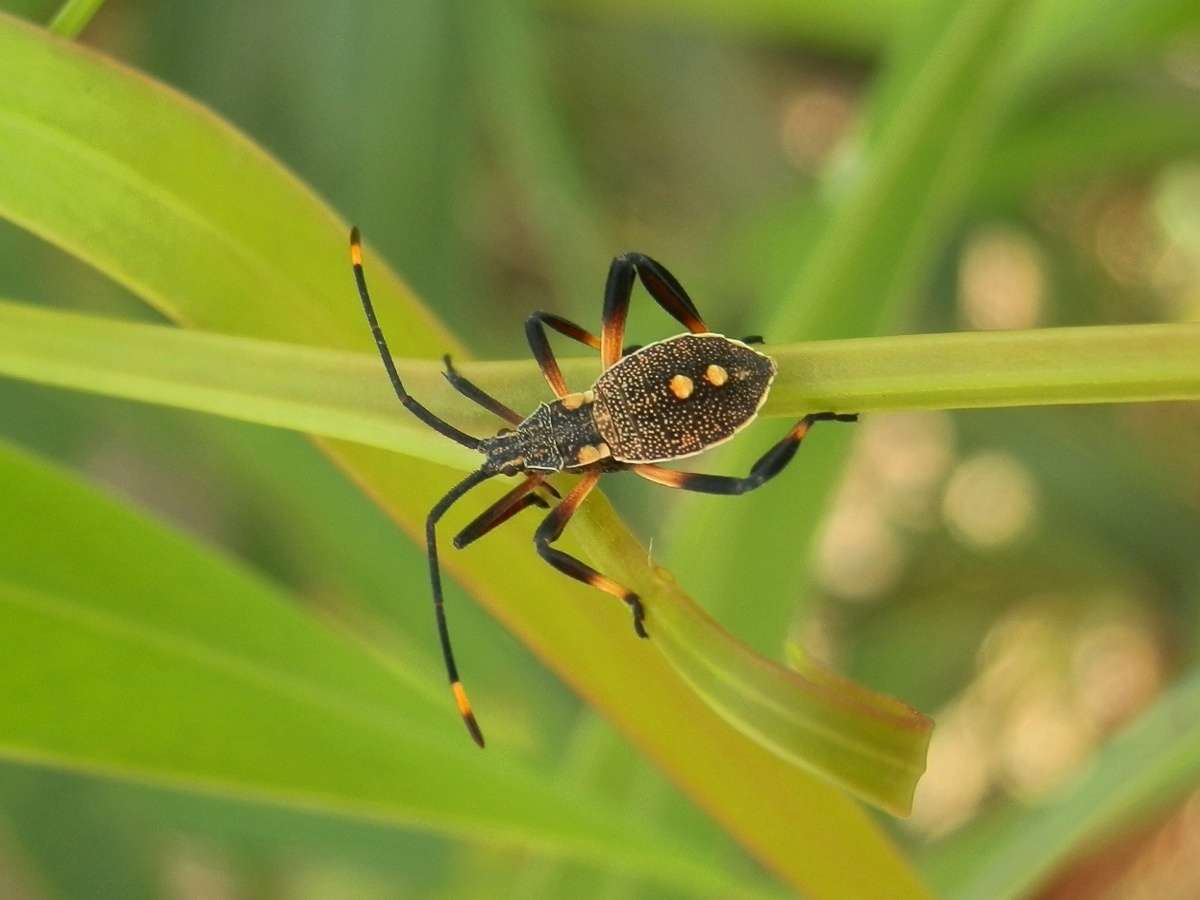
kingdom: Animalia
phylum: Arthropoda
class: Insecta
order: Hemiptera
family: Coreidae
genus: Mictis
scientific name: Mictis profana
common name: Crusader bug
